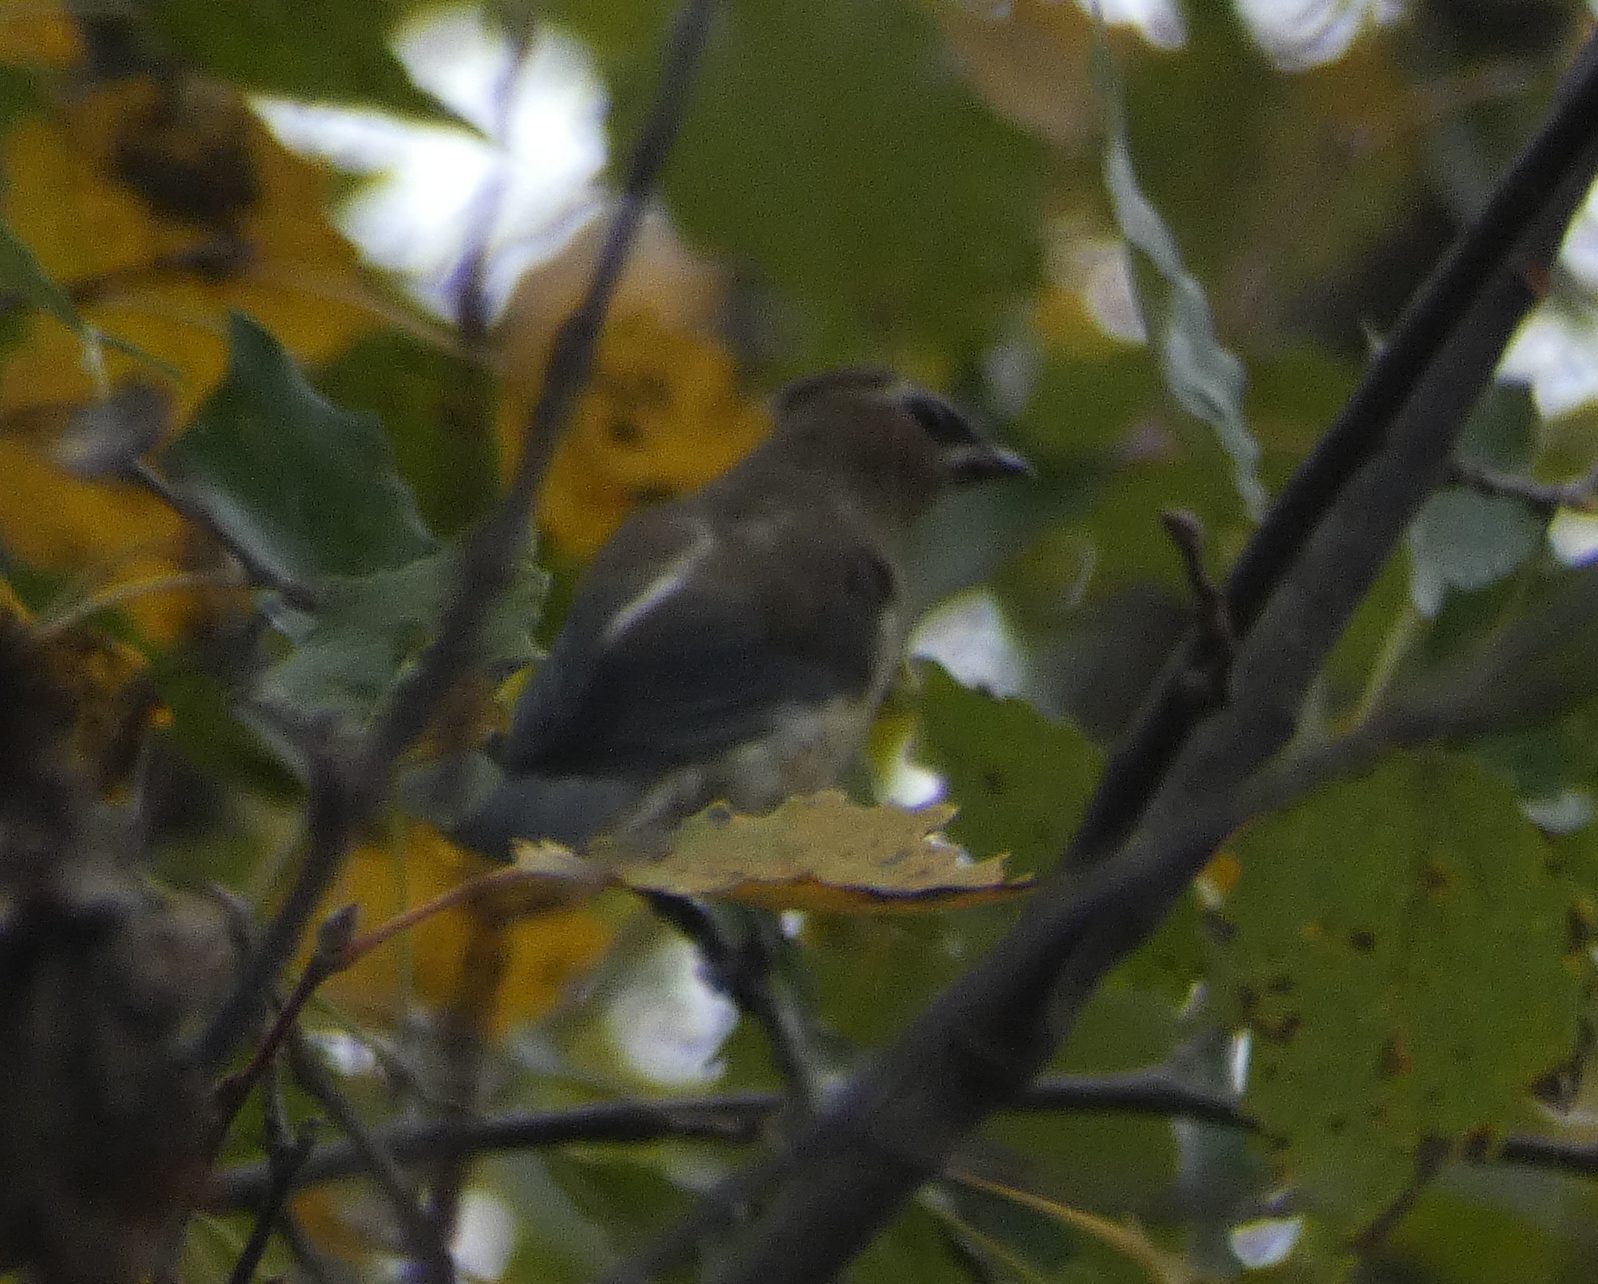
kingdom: Animalia
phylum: Chordata
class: Aves
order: Passeriformes
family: Bombycillidae
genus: Bombycilla
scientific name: Bombycilla cedrorum
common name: Cedar waxwing
